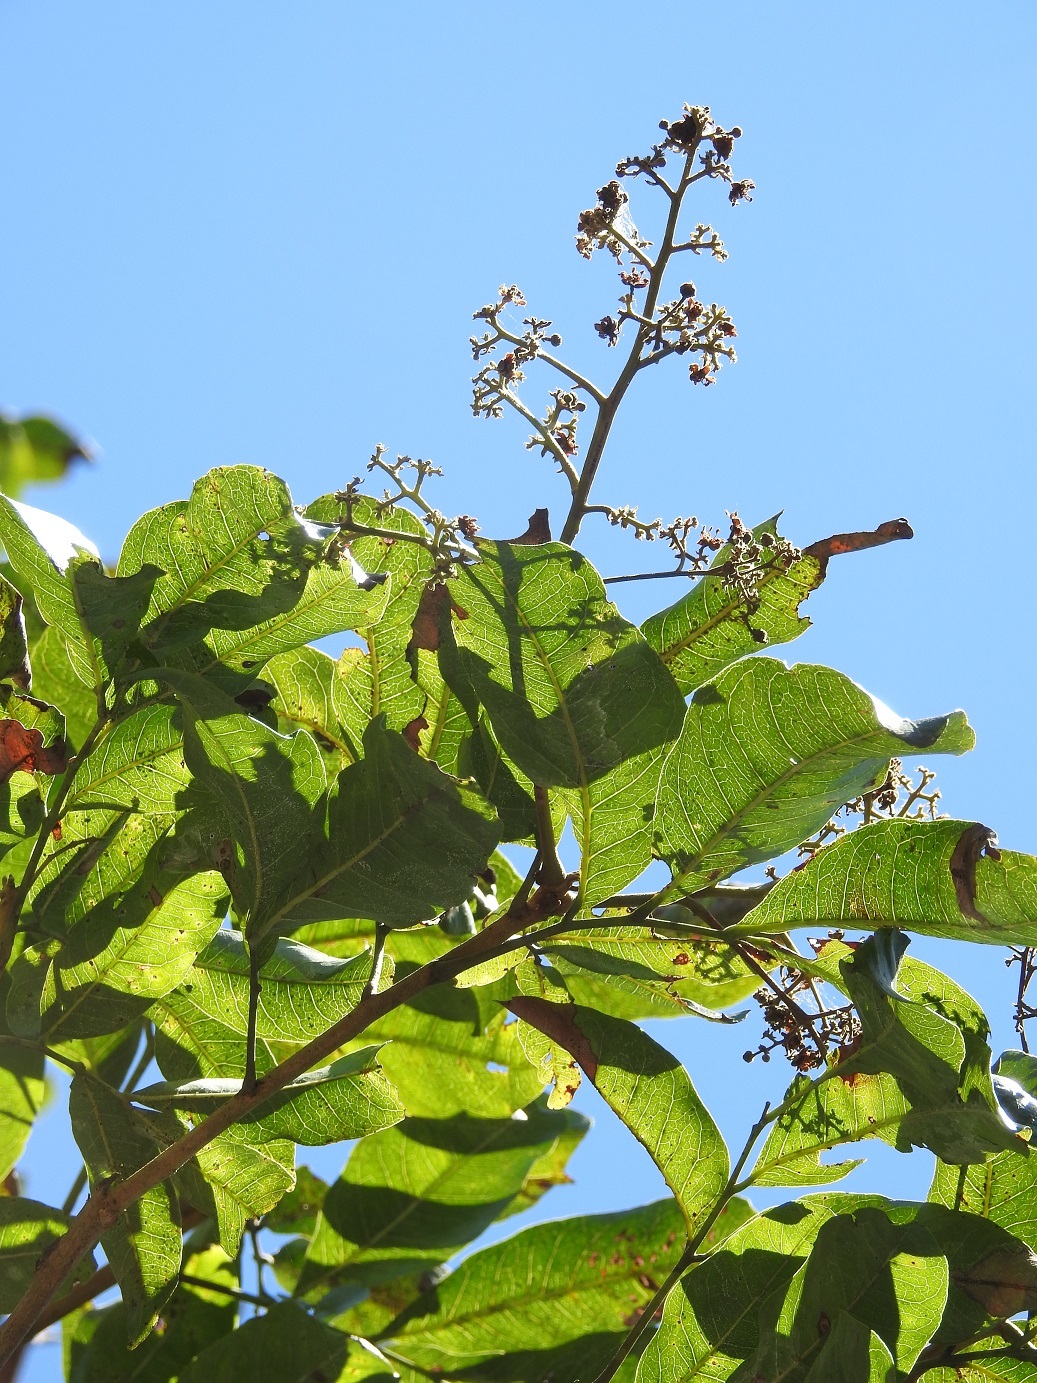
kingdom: Plantae
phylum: Tracheophyta
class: Magnoliopsida
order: Sapindales
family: Anacardiaceae
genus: Tapirira
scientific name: Tapirira mexicana
